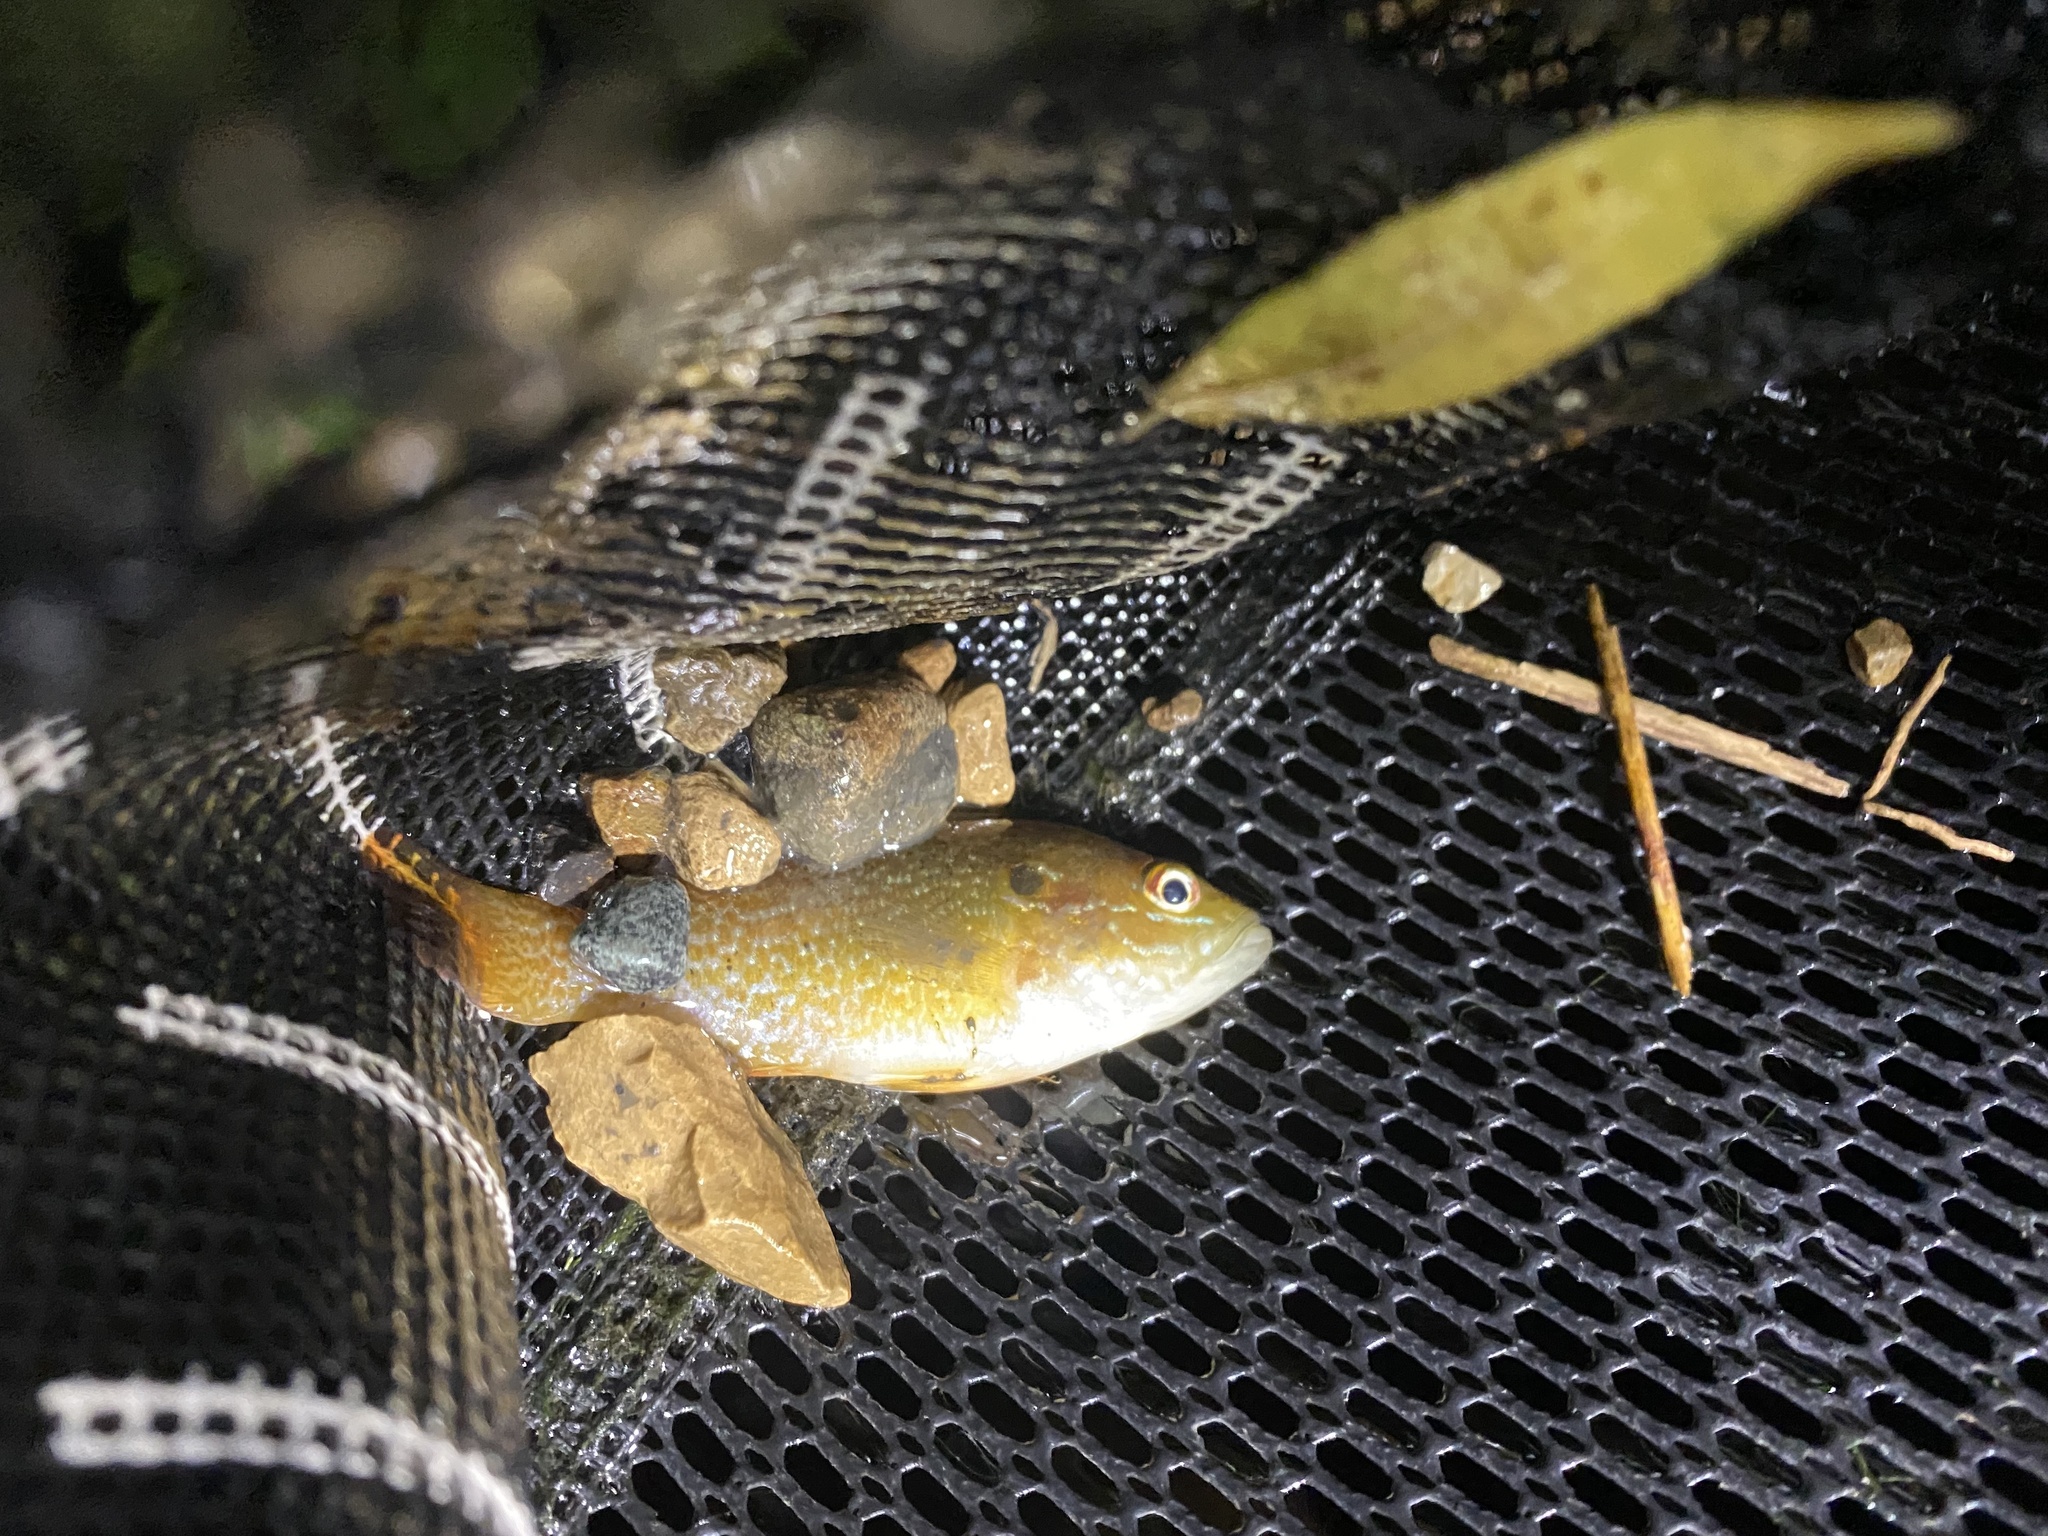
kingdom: Animalia
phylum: Chordata
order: Perciformes
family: Centrarchidae
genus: Lepomis
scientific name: Lepomis cyanellus
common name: Green sunfish
